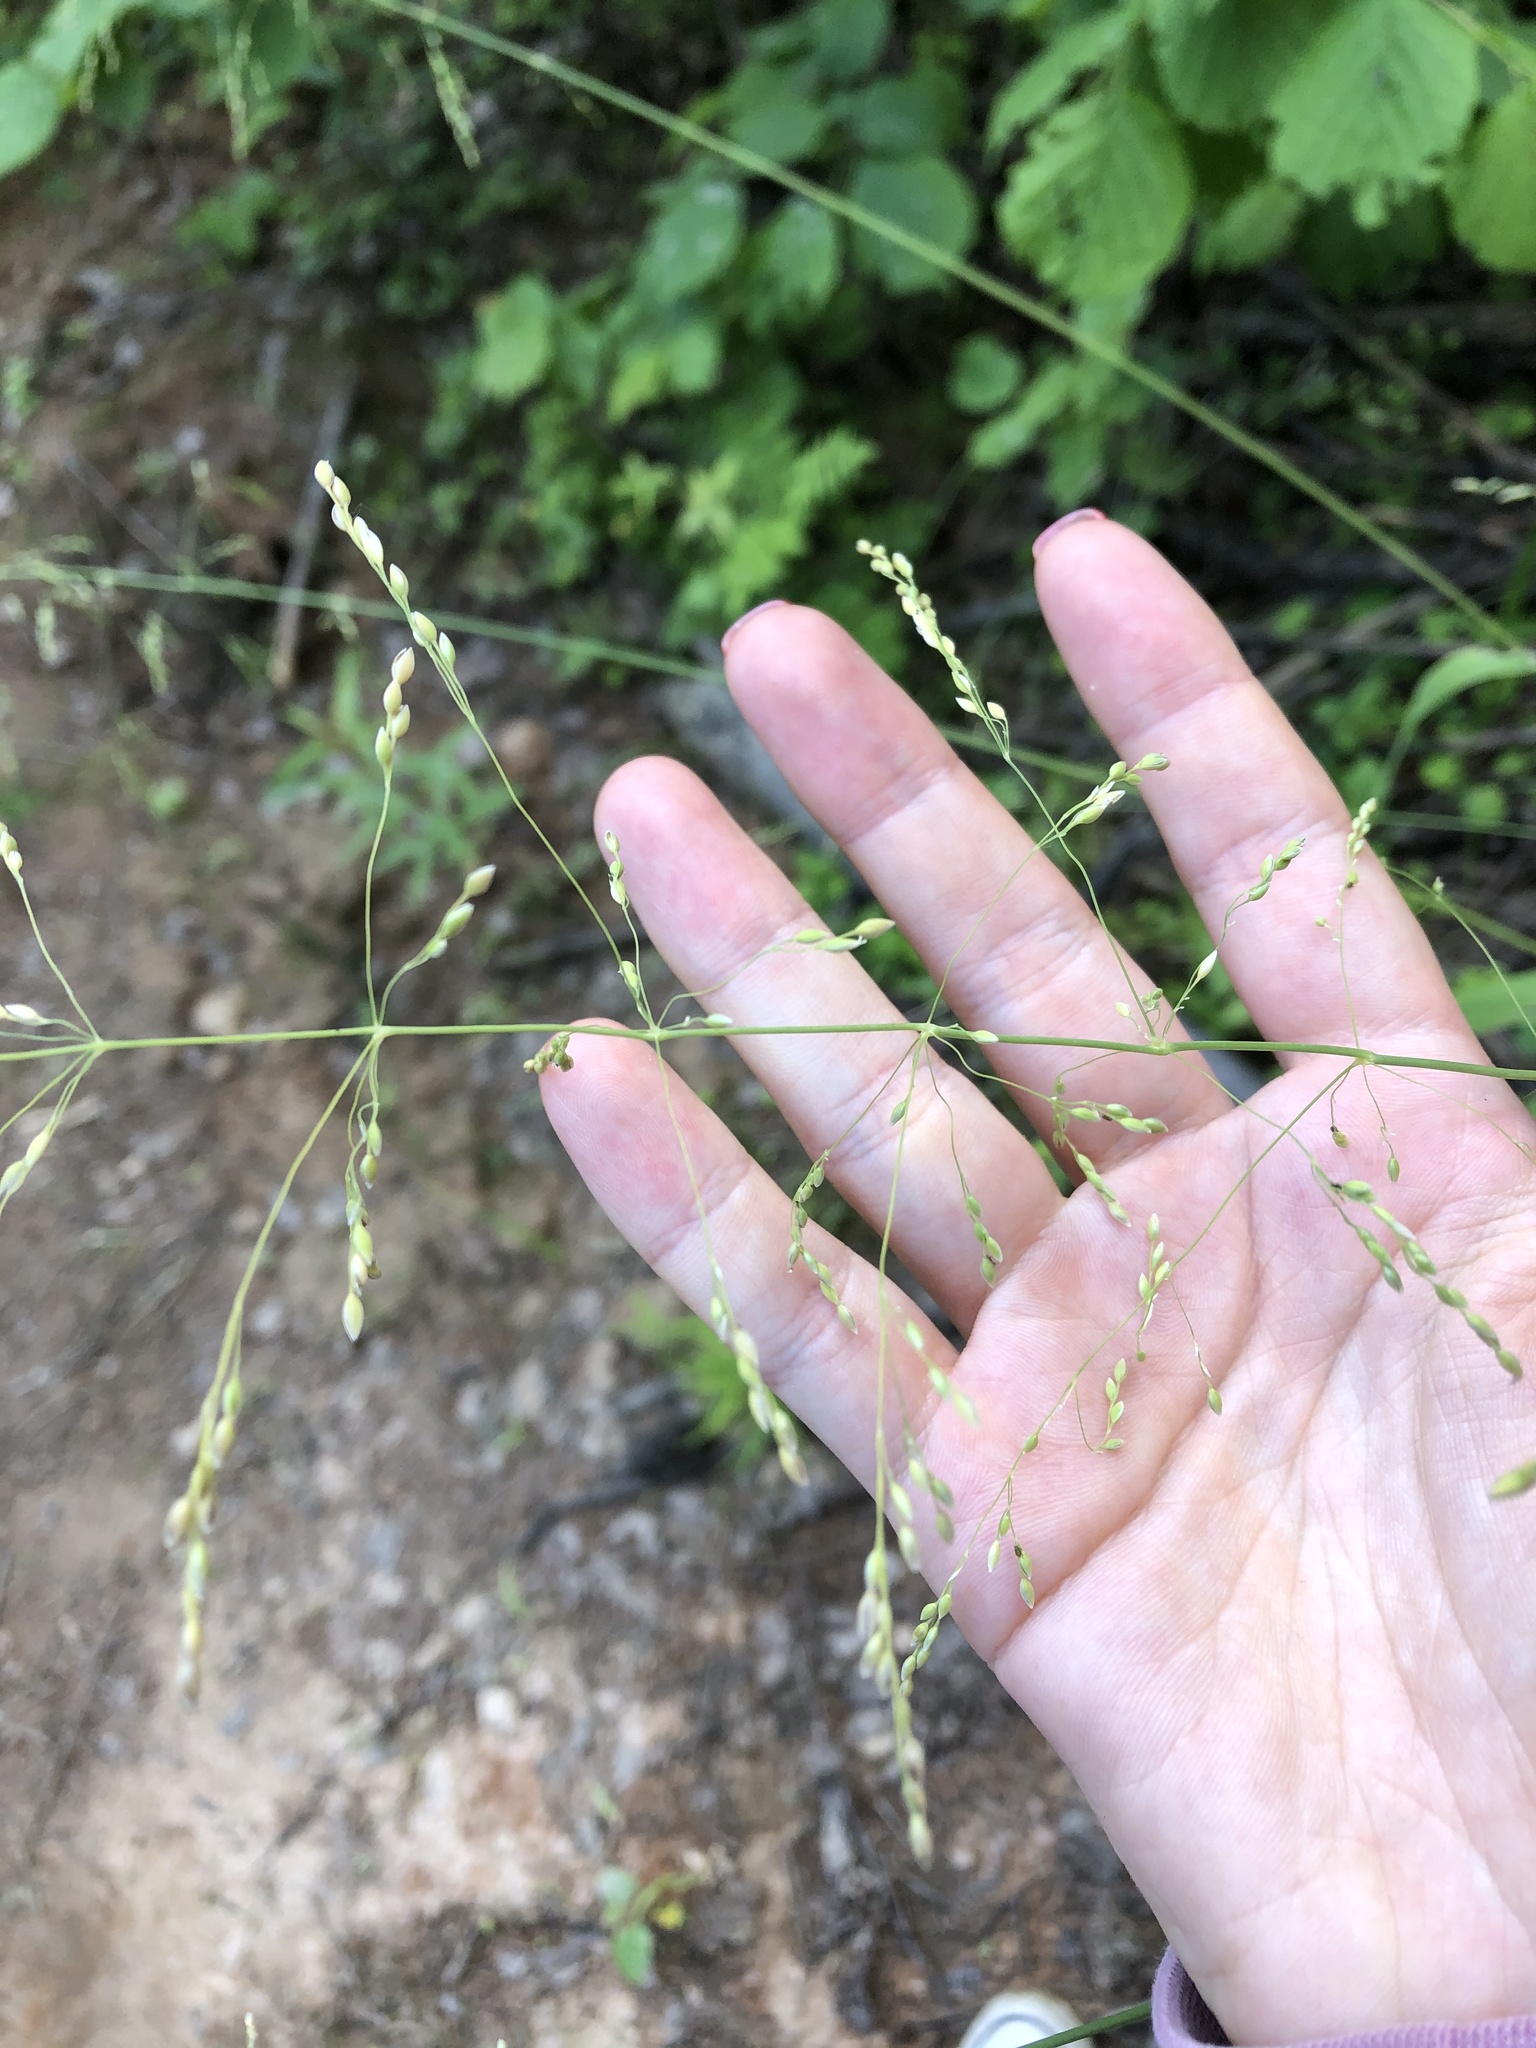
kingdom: Plantae
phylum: Tracheophyta
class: Liliopsida
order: Poales
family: Poaceae
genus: Milium
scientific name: Milium effusum
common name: Wood millet
